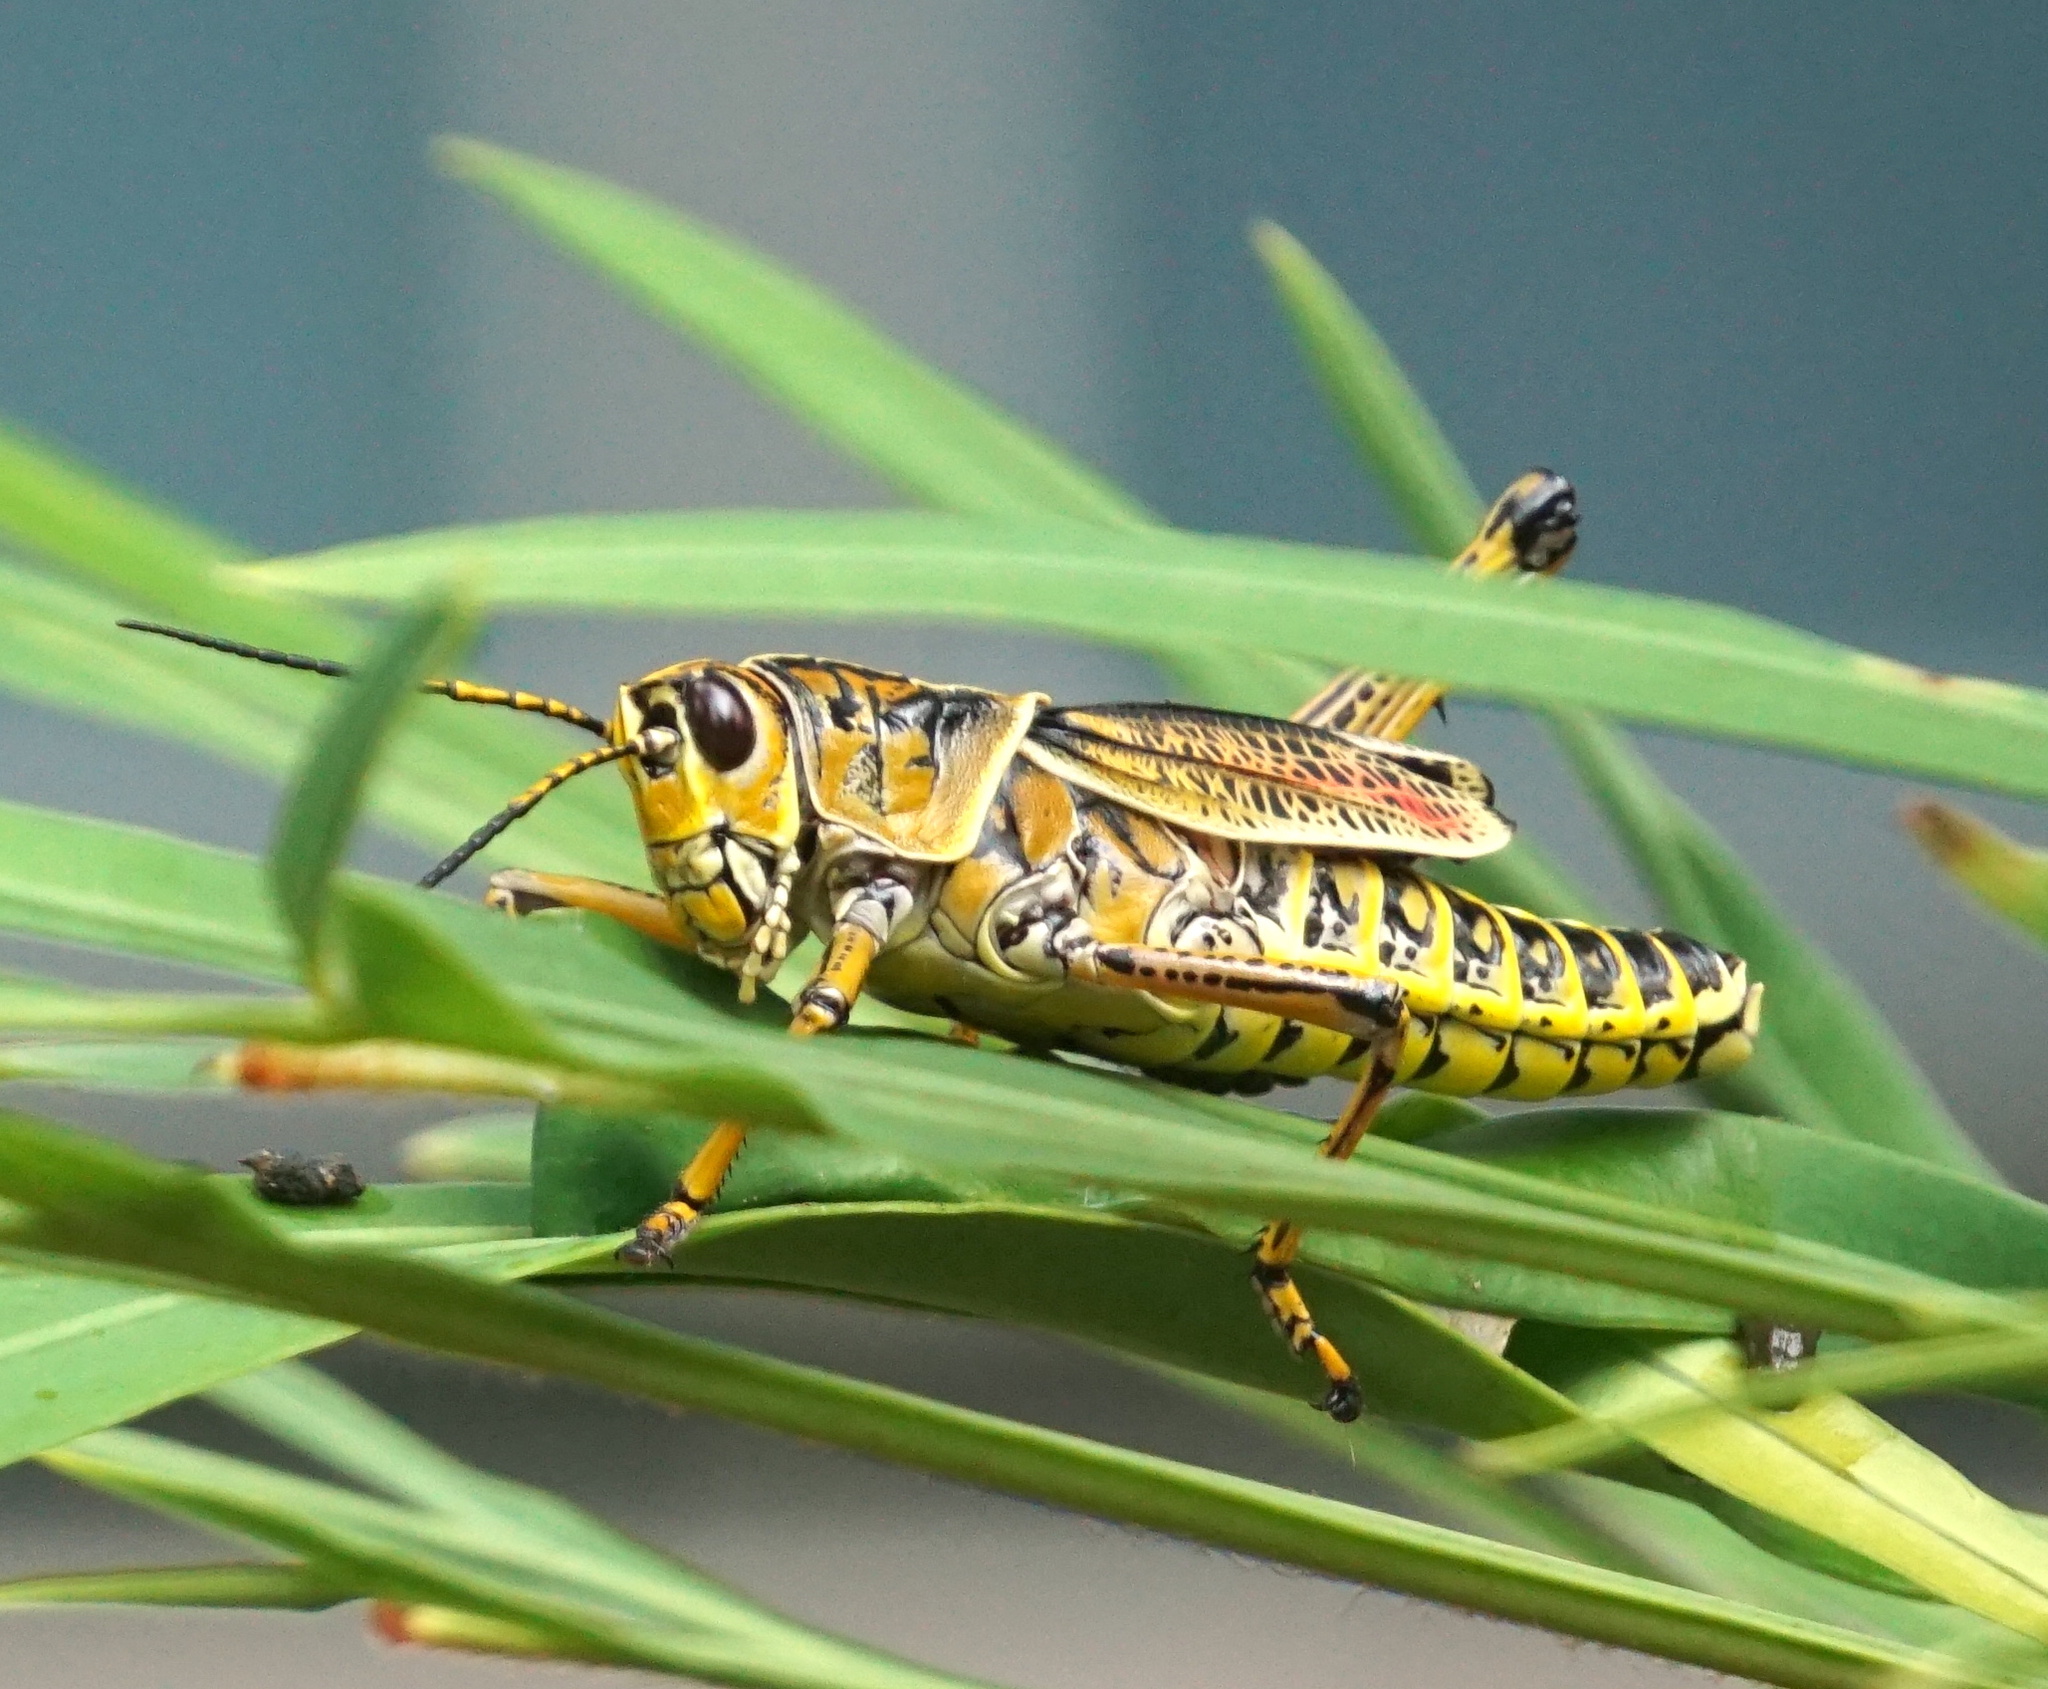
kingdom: Animalia
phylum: Arthropoda
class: Insecta
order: Orthoptera
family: Romaleidae
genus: Romalea
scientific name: Romalea microptera
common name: Eastern lubber grasshopper
